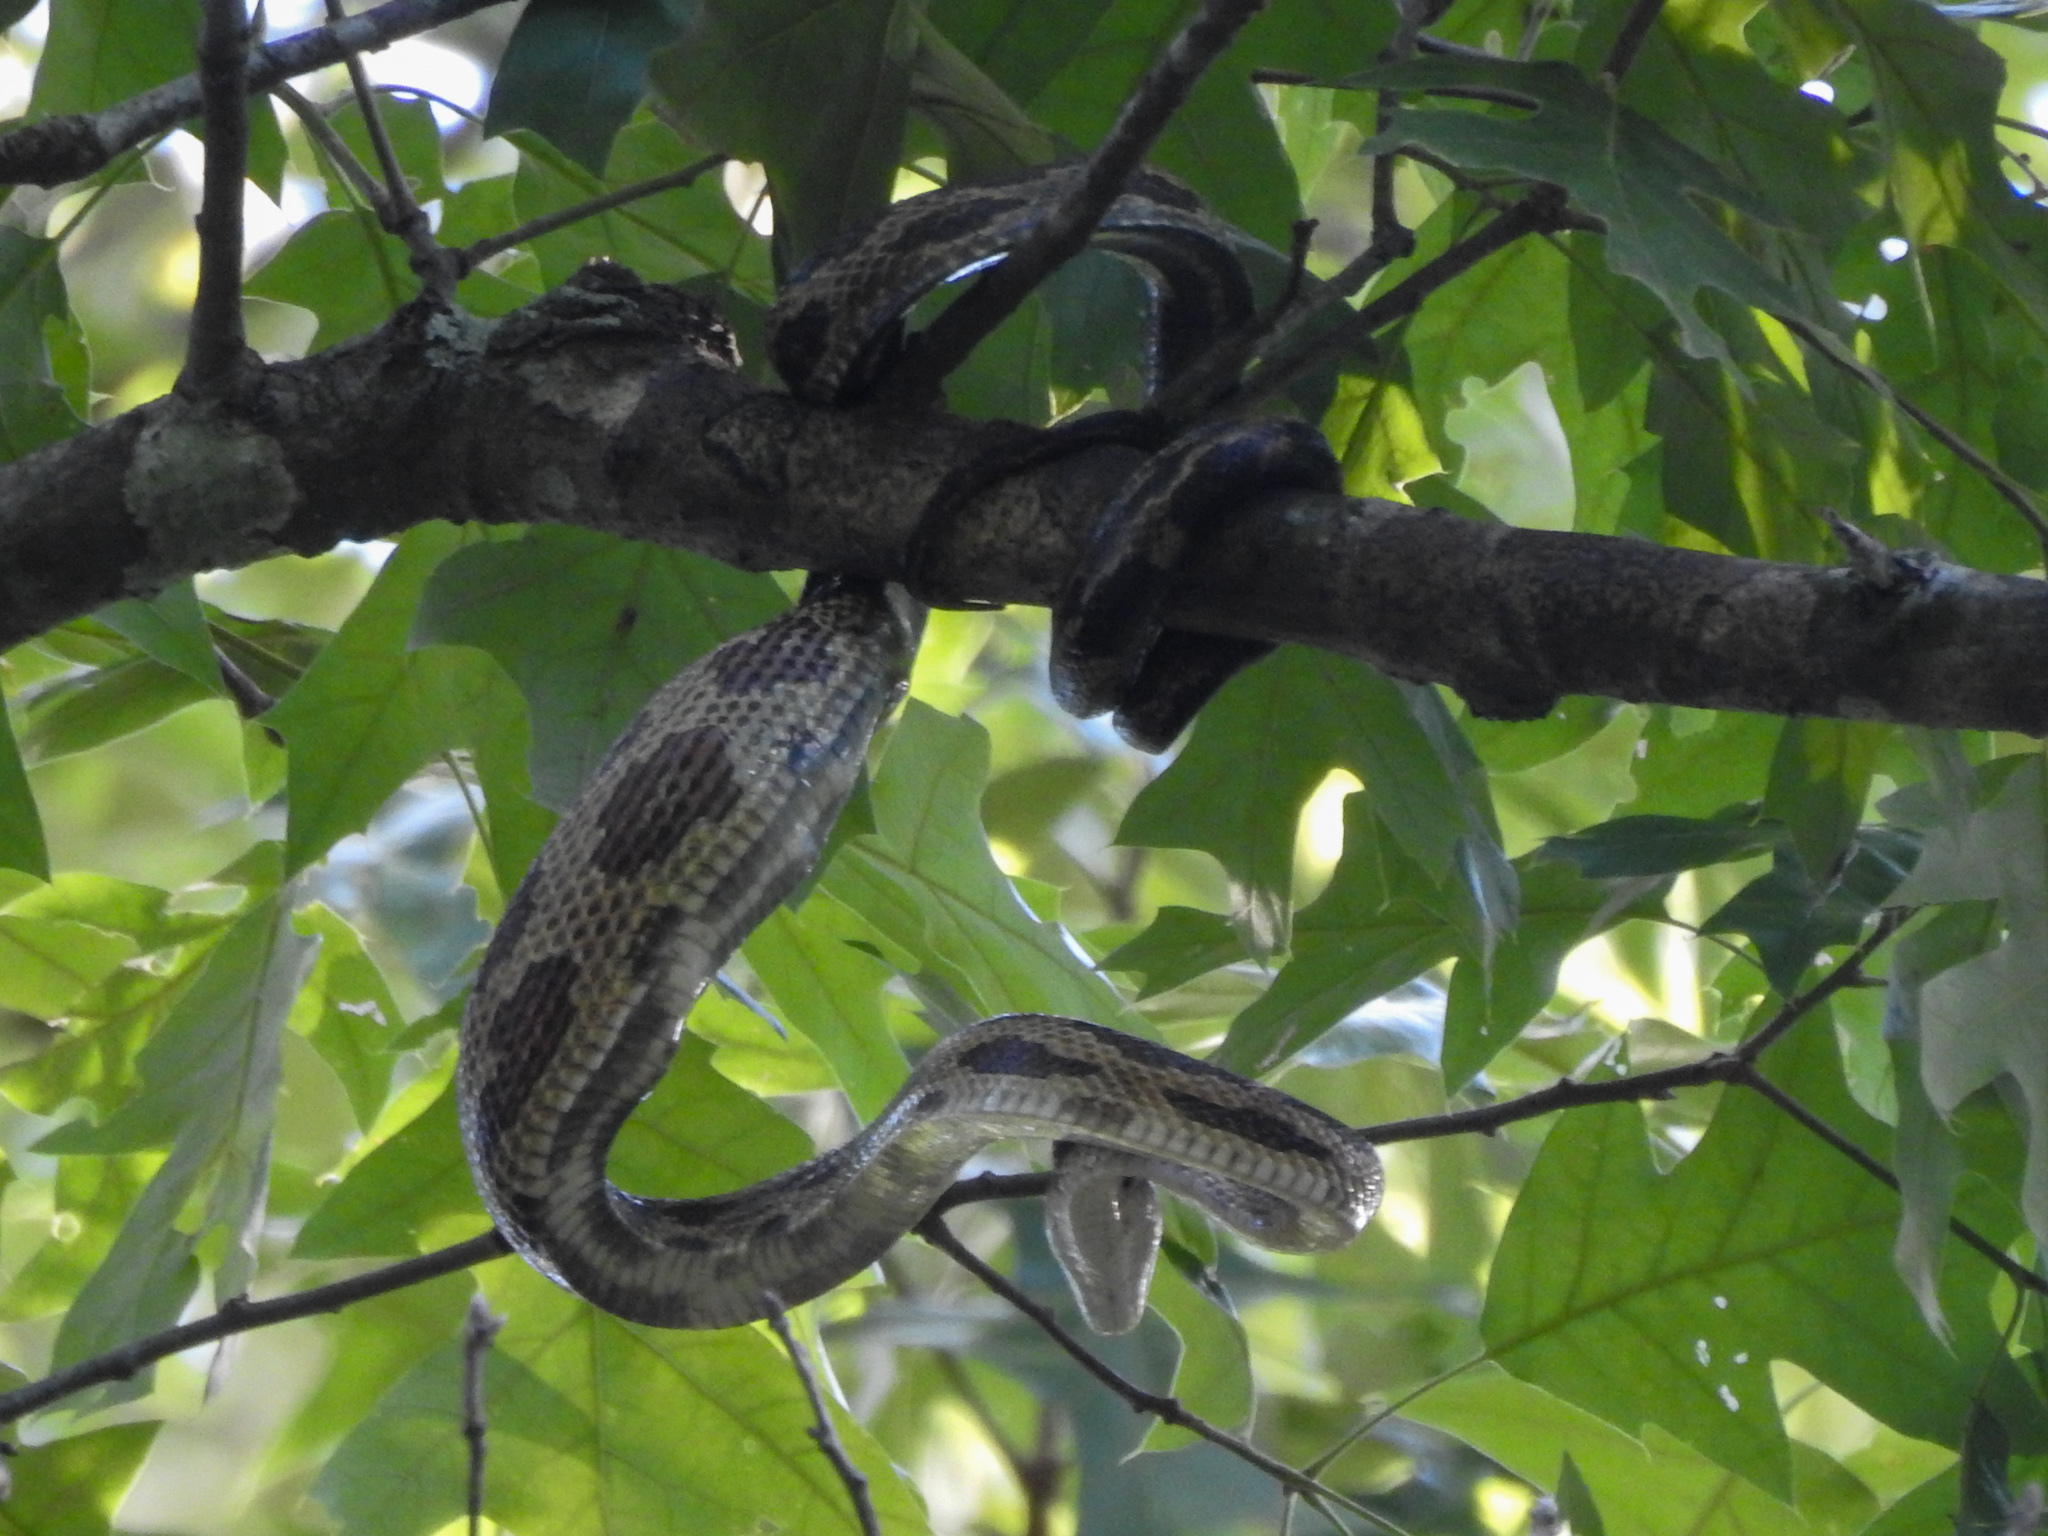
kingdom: Animalia
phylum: Chordata
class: Squamata
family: Colubridae
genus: Pantherophis
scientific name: Pantherophis spiloides
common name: Gray rat snake
